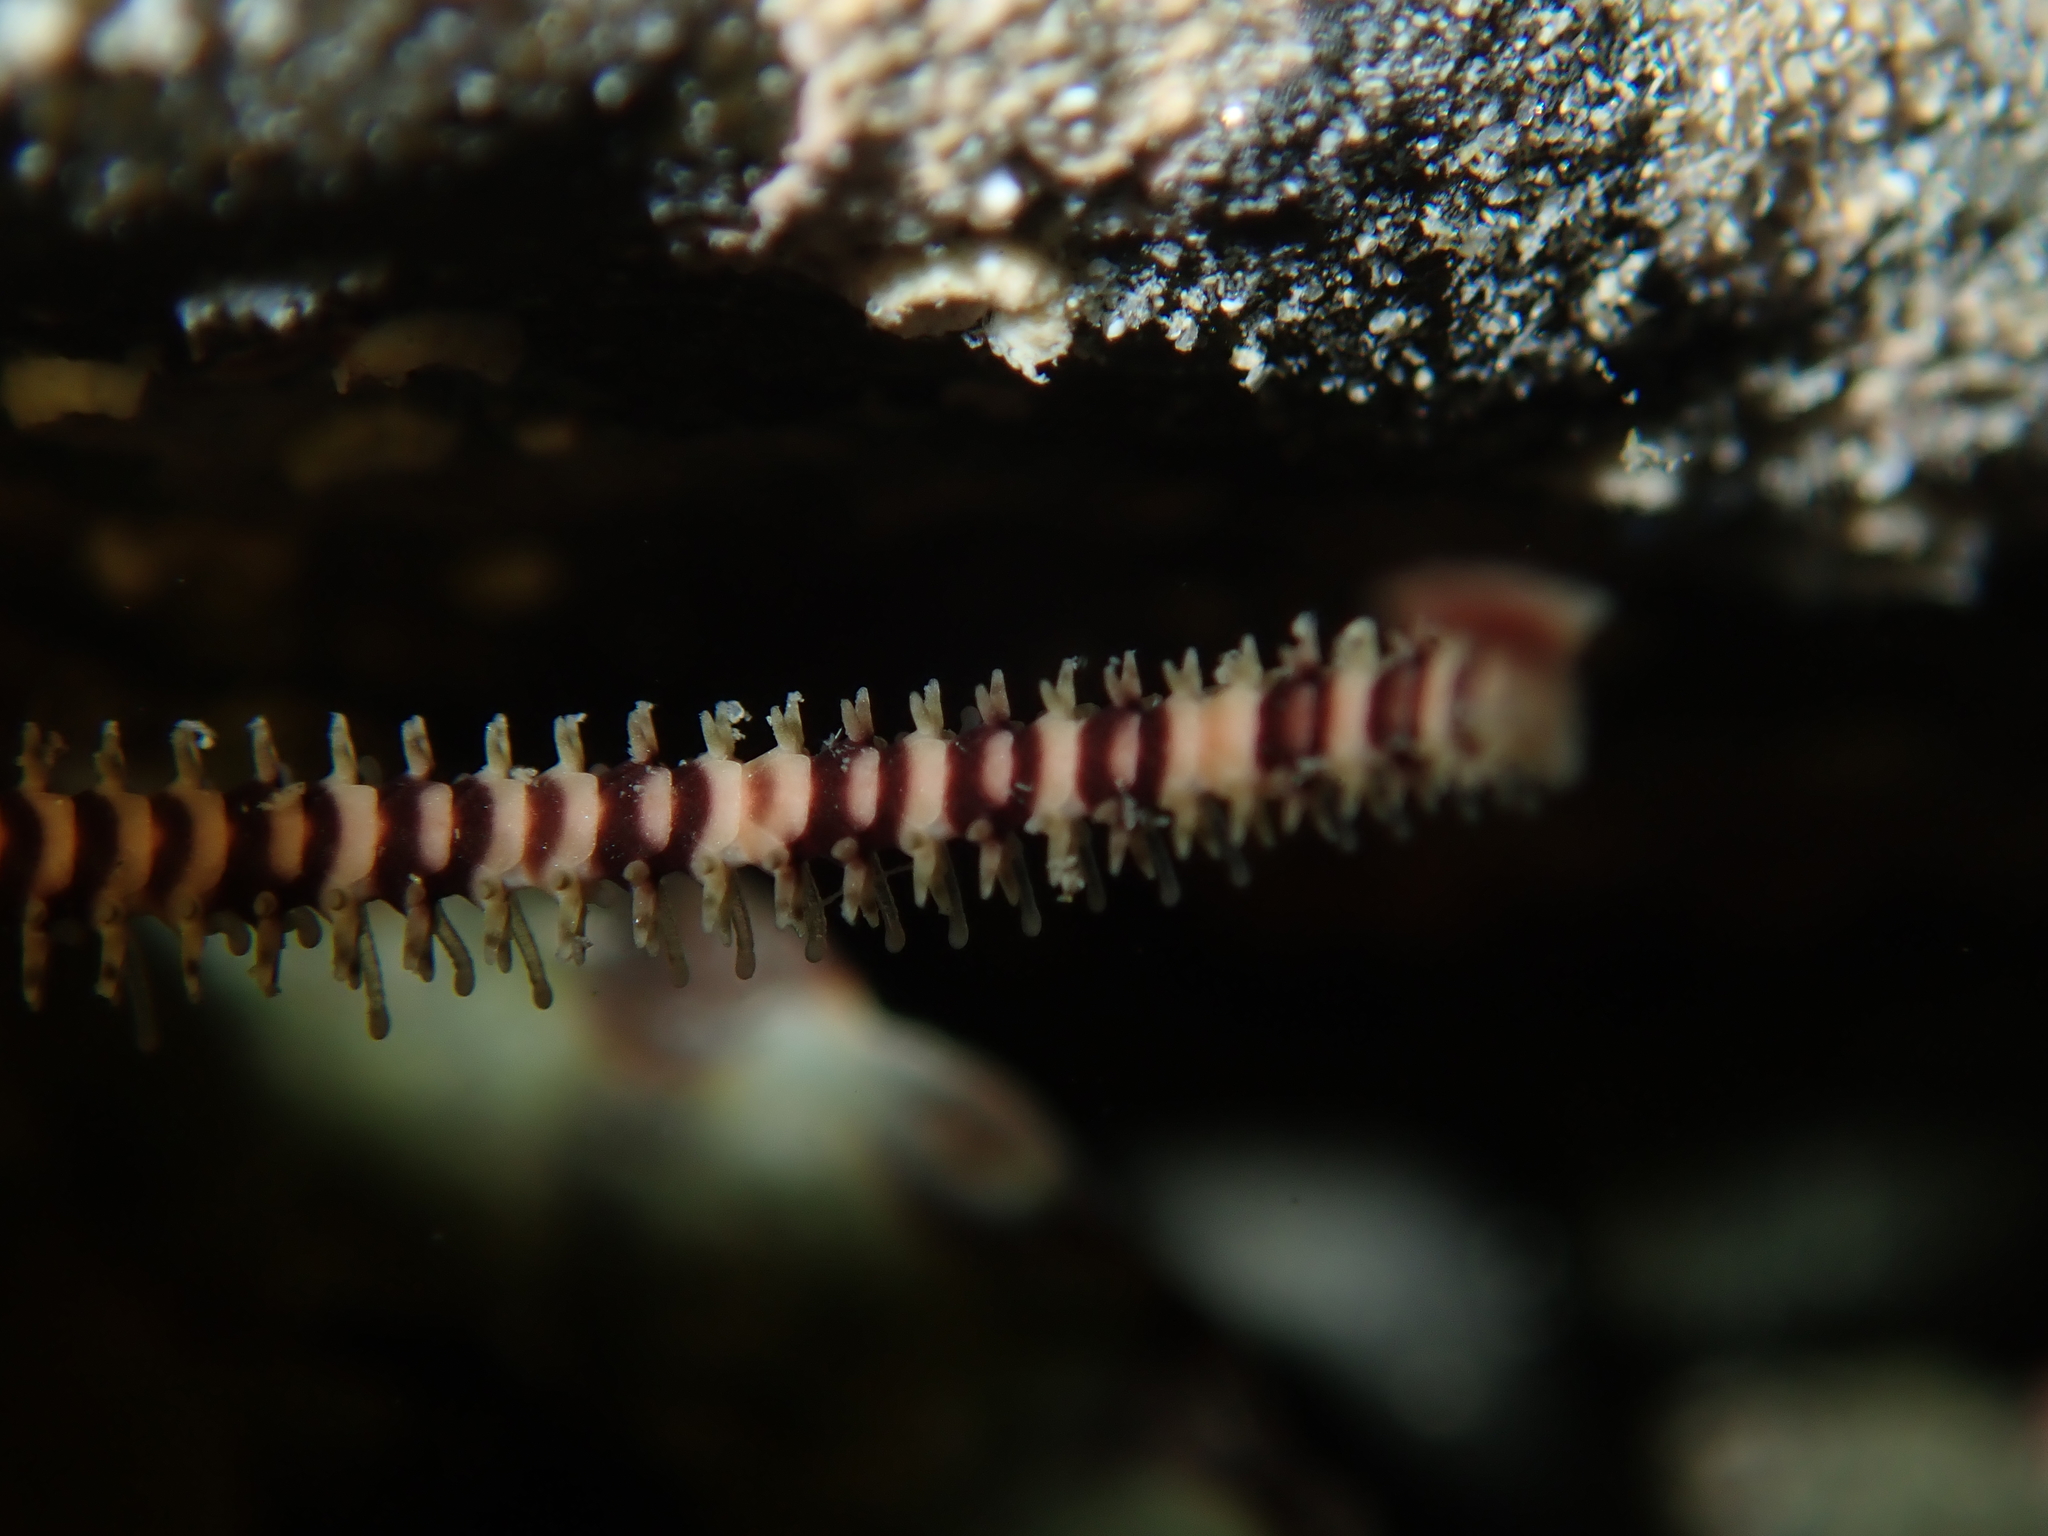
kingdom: Animalia
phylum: Echinodermata
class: Ophiuroidea
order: Amphilepidida
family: Ophionereididae
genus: Ophionereis
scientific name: Ophionereis fasciata
